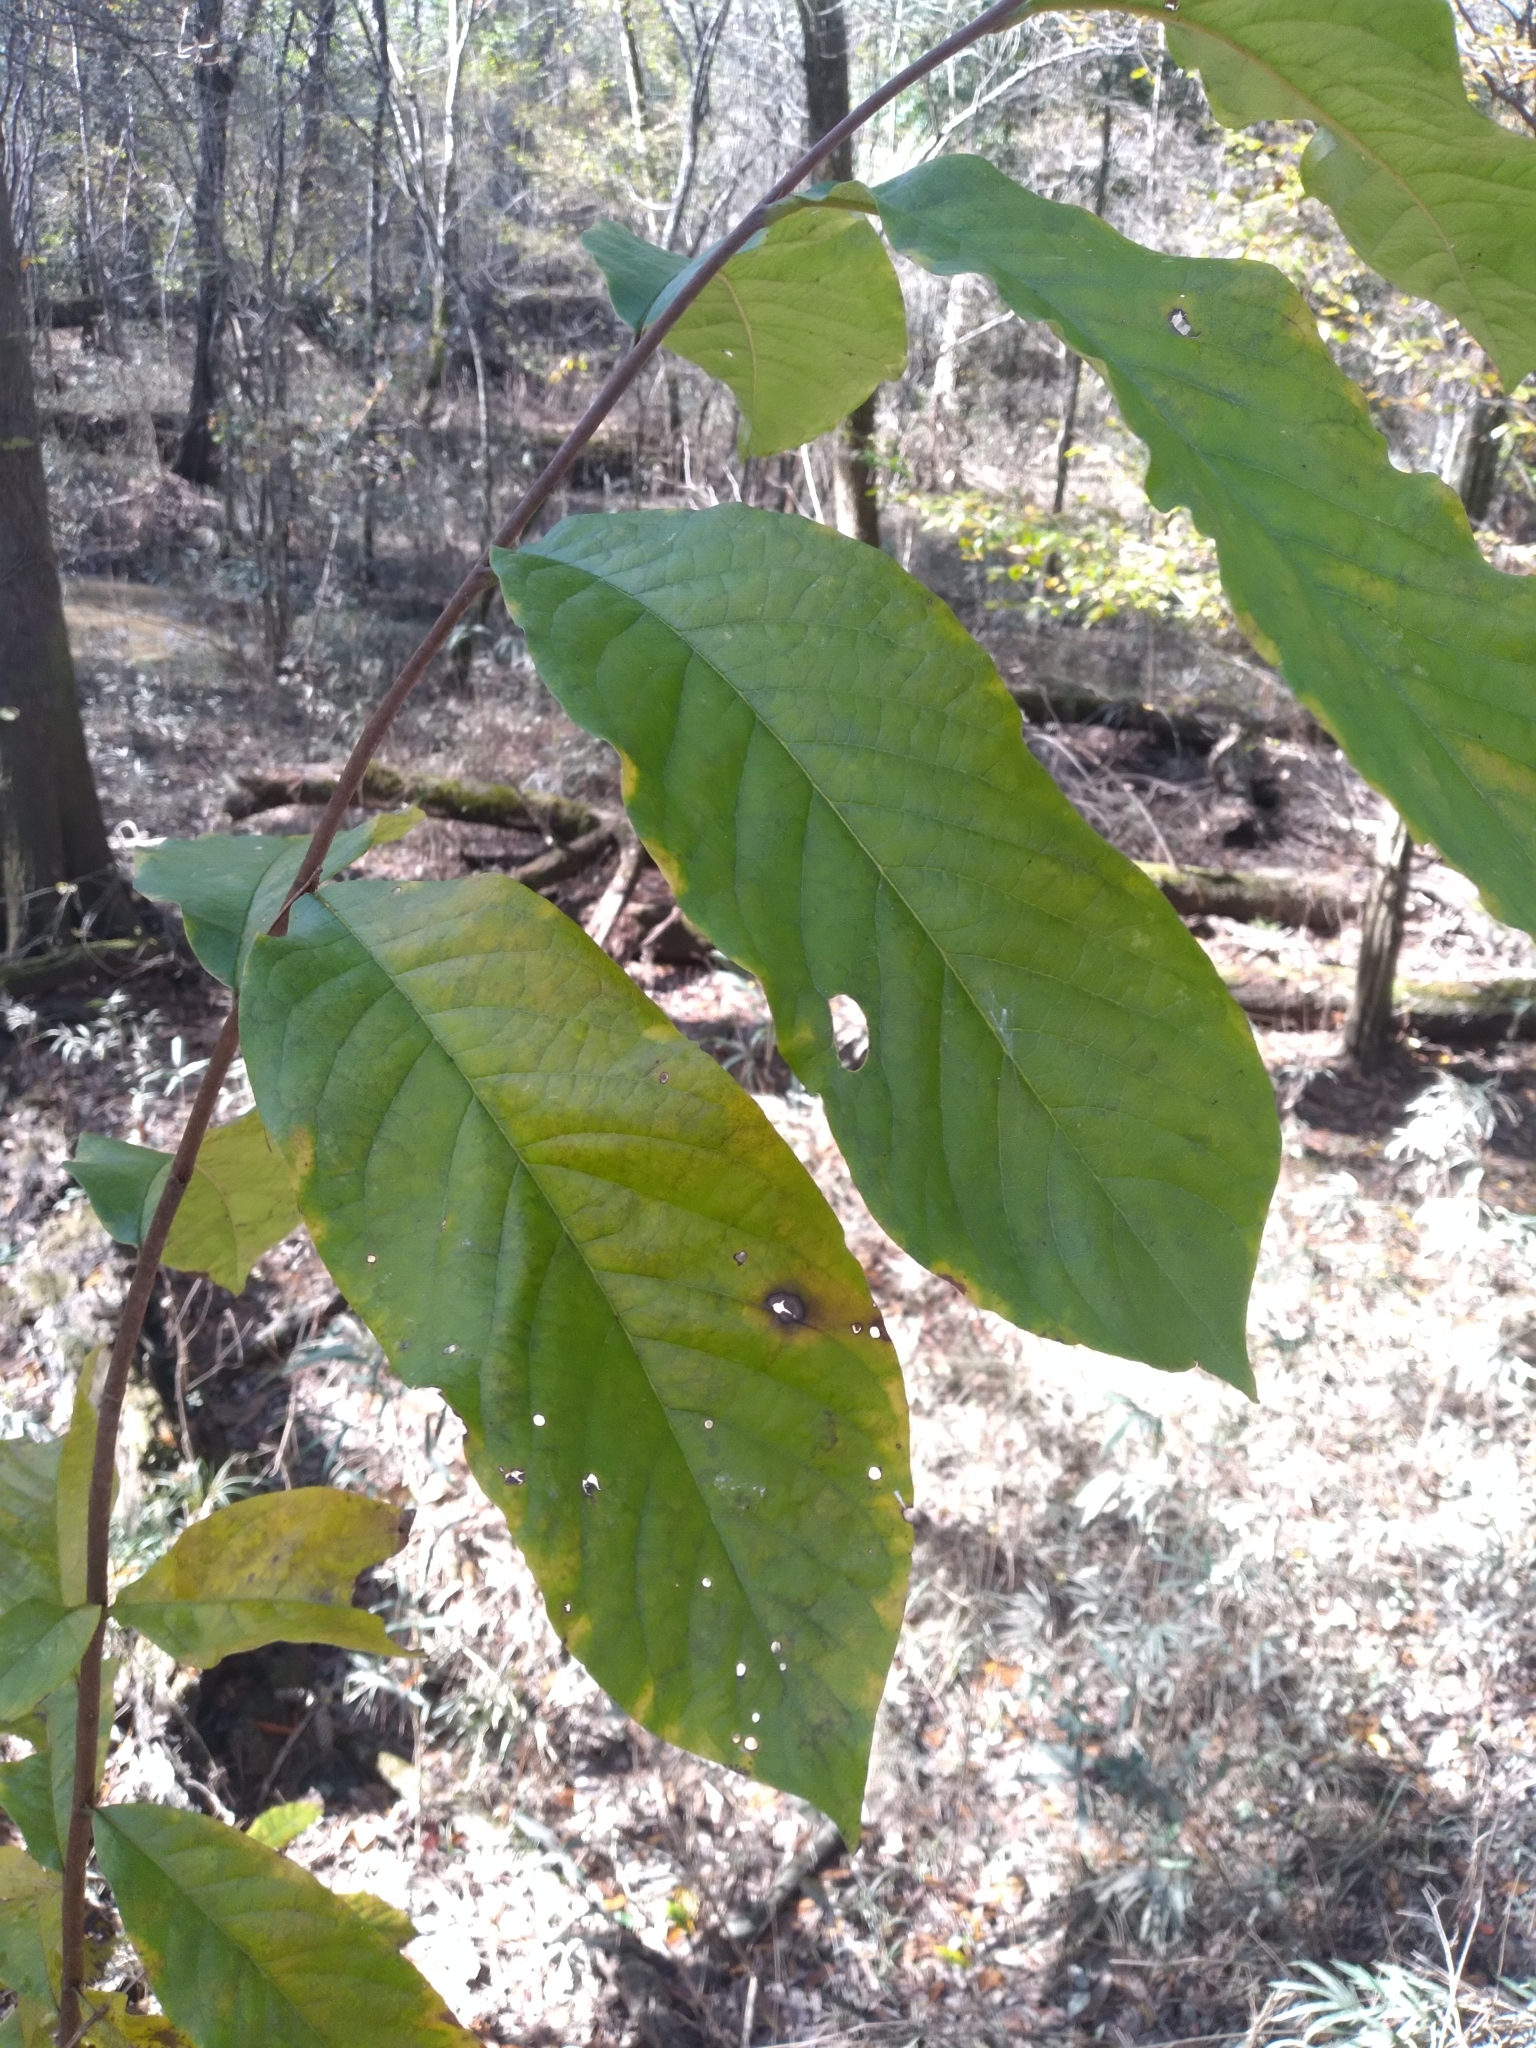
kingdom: Plantae
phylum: Tracheophyta
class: Magnoliopsida
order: Magnoliales
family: Annonaceae
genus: Asimina
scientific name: Asimina triloba
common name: Dog-banana
